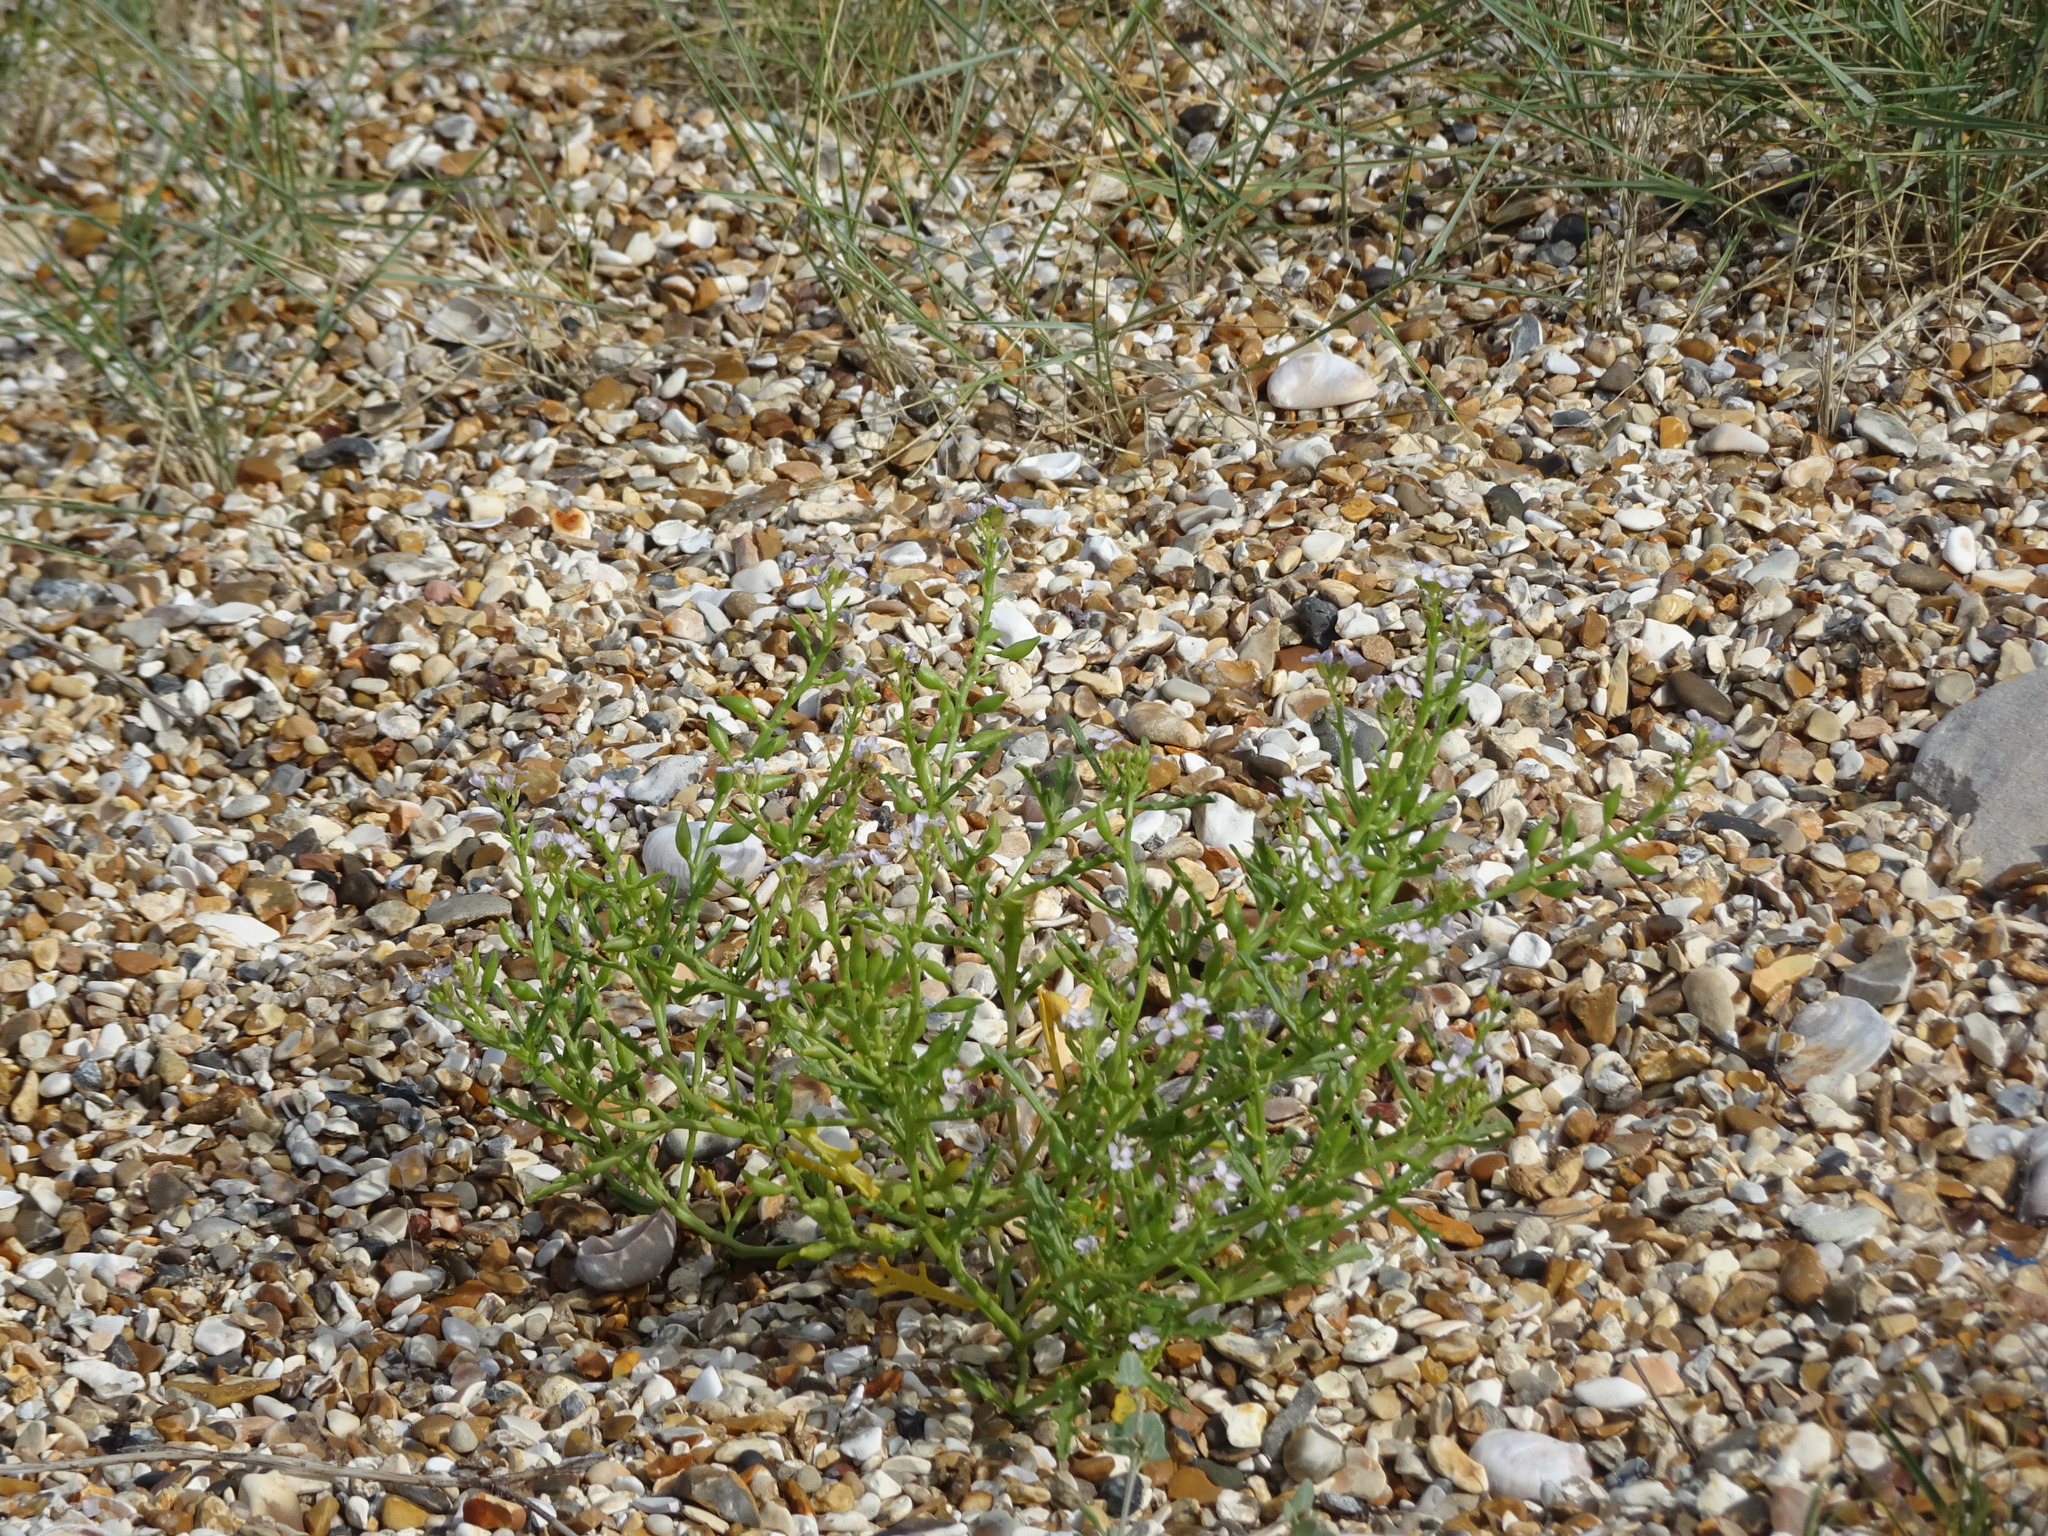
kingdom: Plantae
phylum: Tracheophyta
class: Magnoliopsida
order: Brassicales
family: Brassicaceae
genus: Cakile
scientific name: Cakile maritima
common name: Sea rocket
